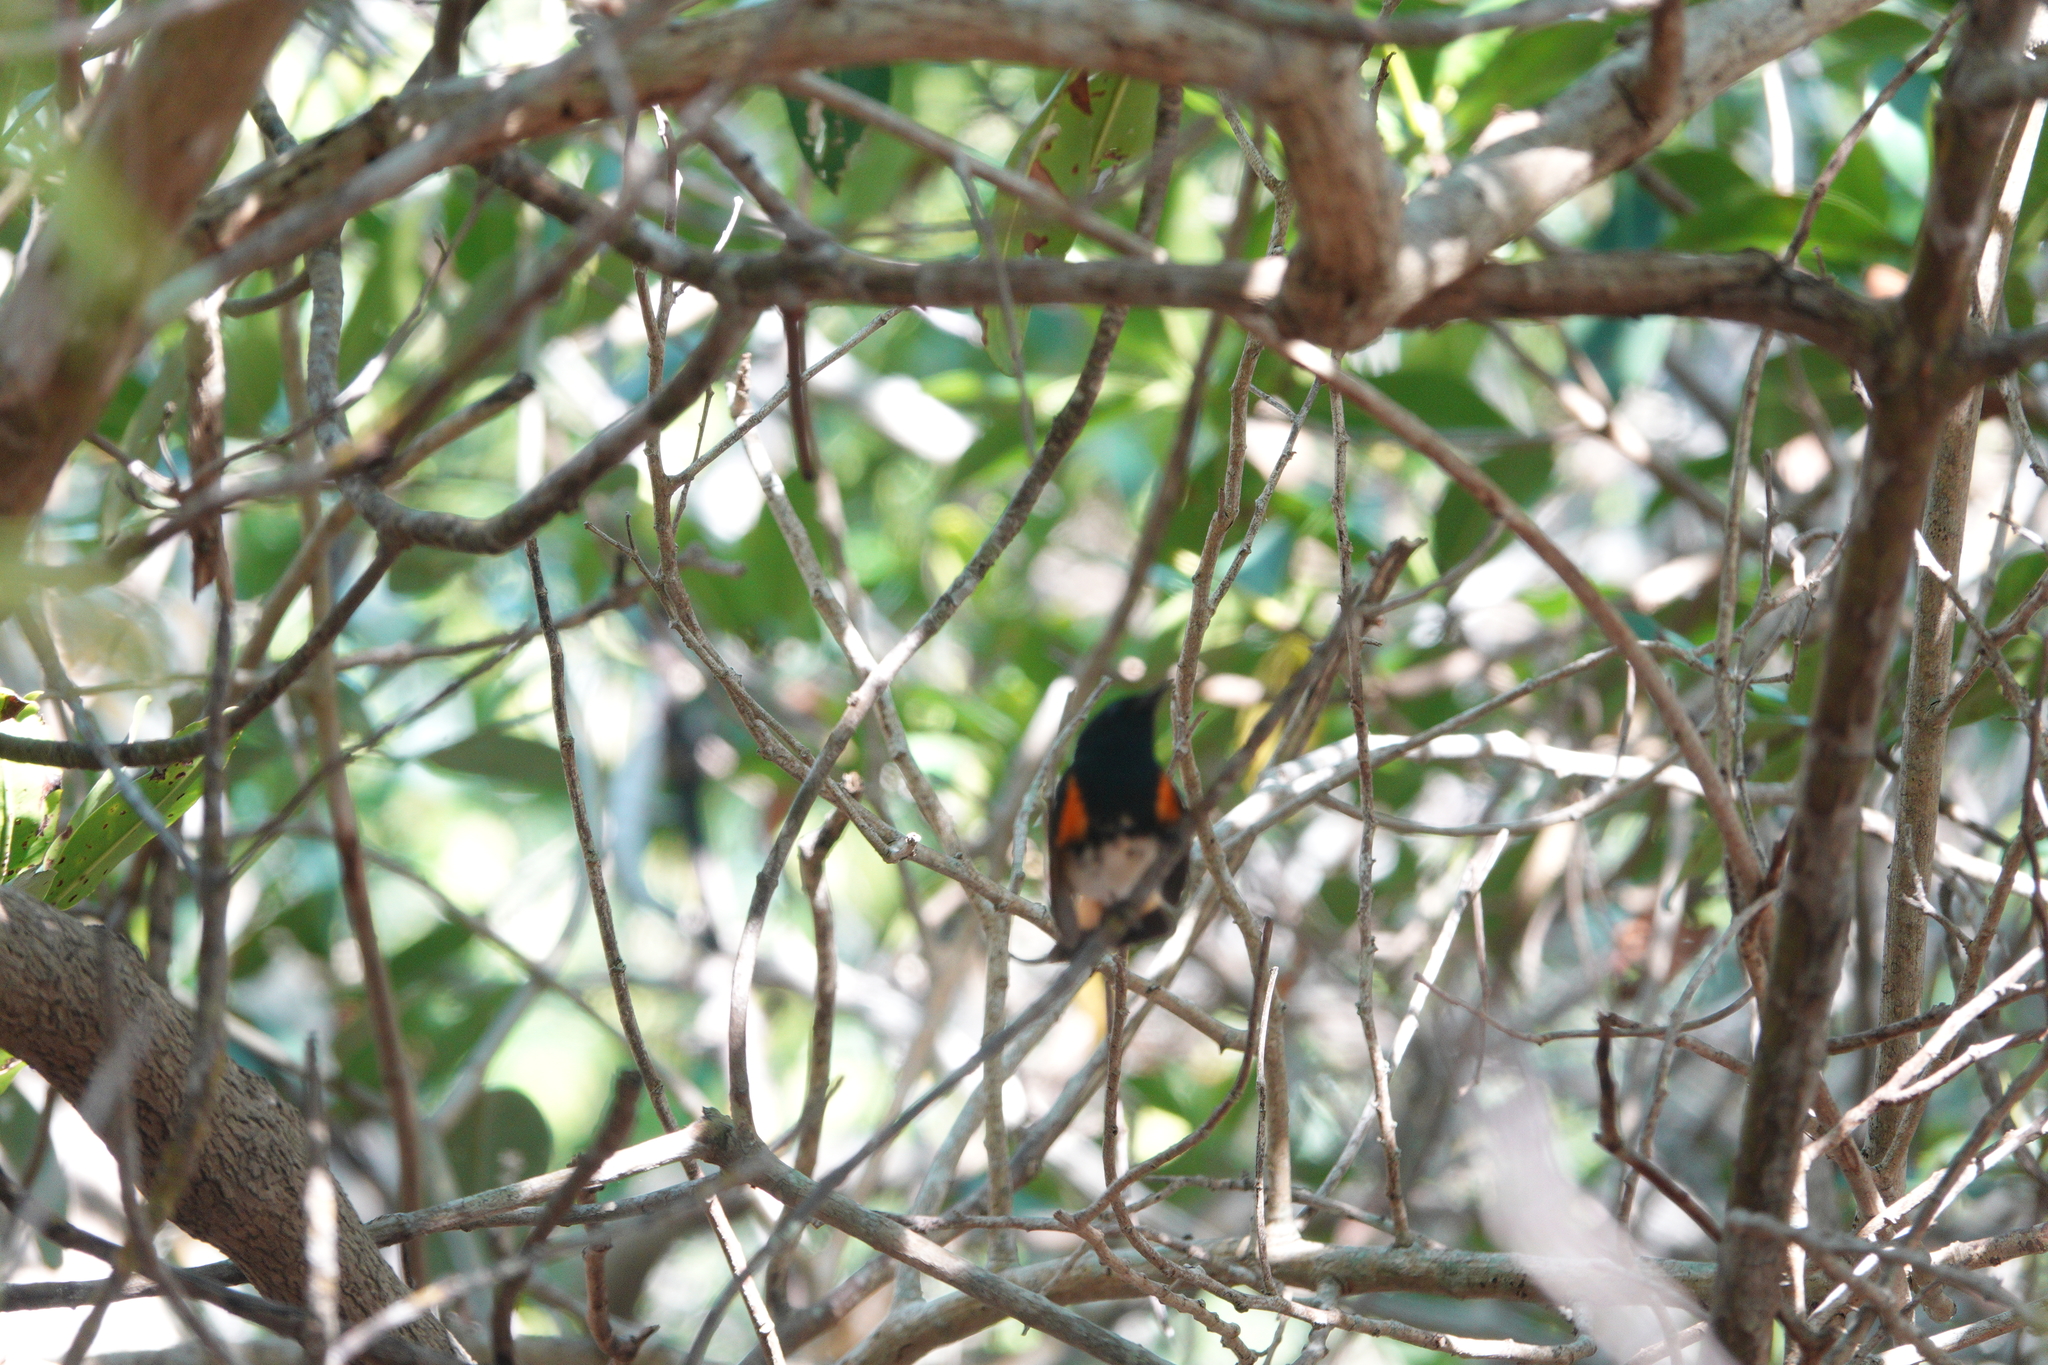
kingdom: Animalia
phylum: Chordata
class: Aves
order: Passeriformes
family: Parulidae
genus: Setophaga
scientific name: Setophaga ruticilla
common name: American redstart
